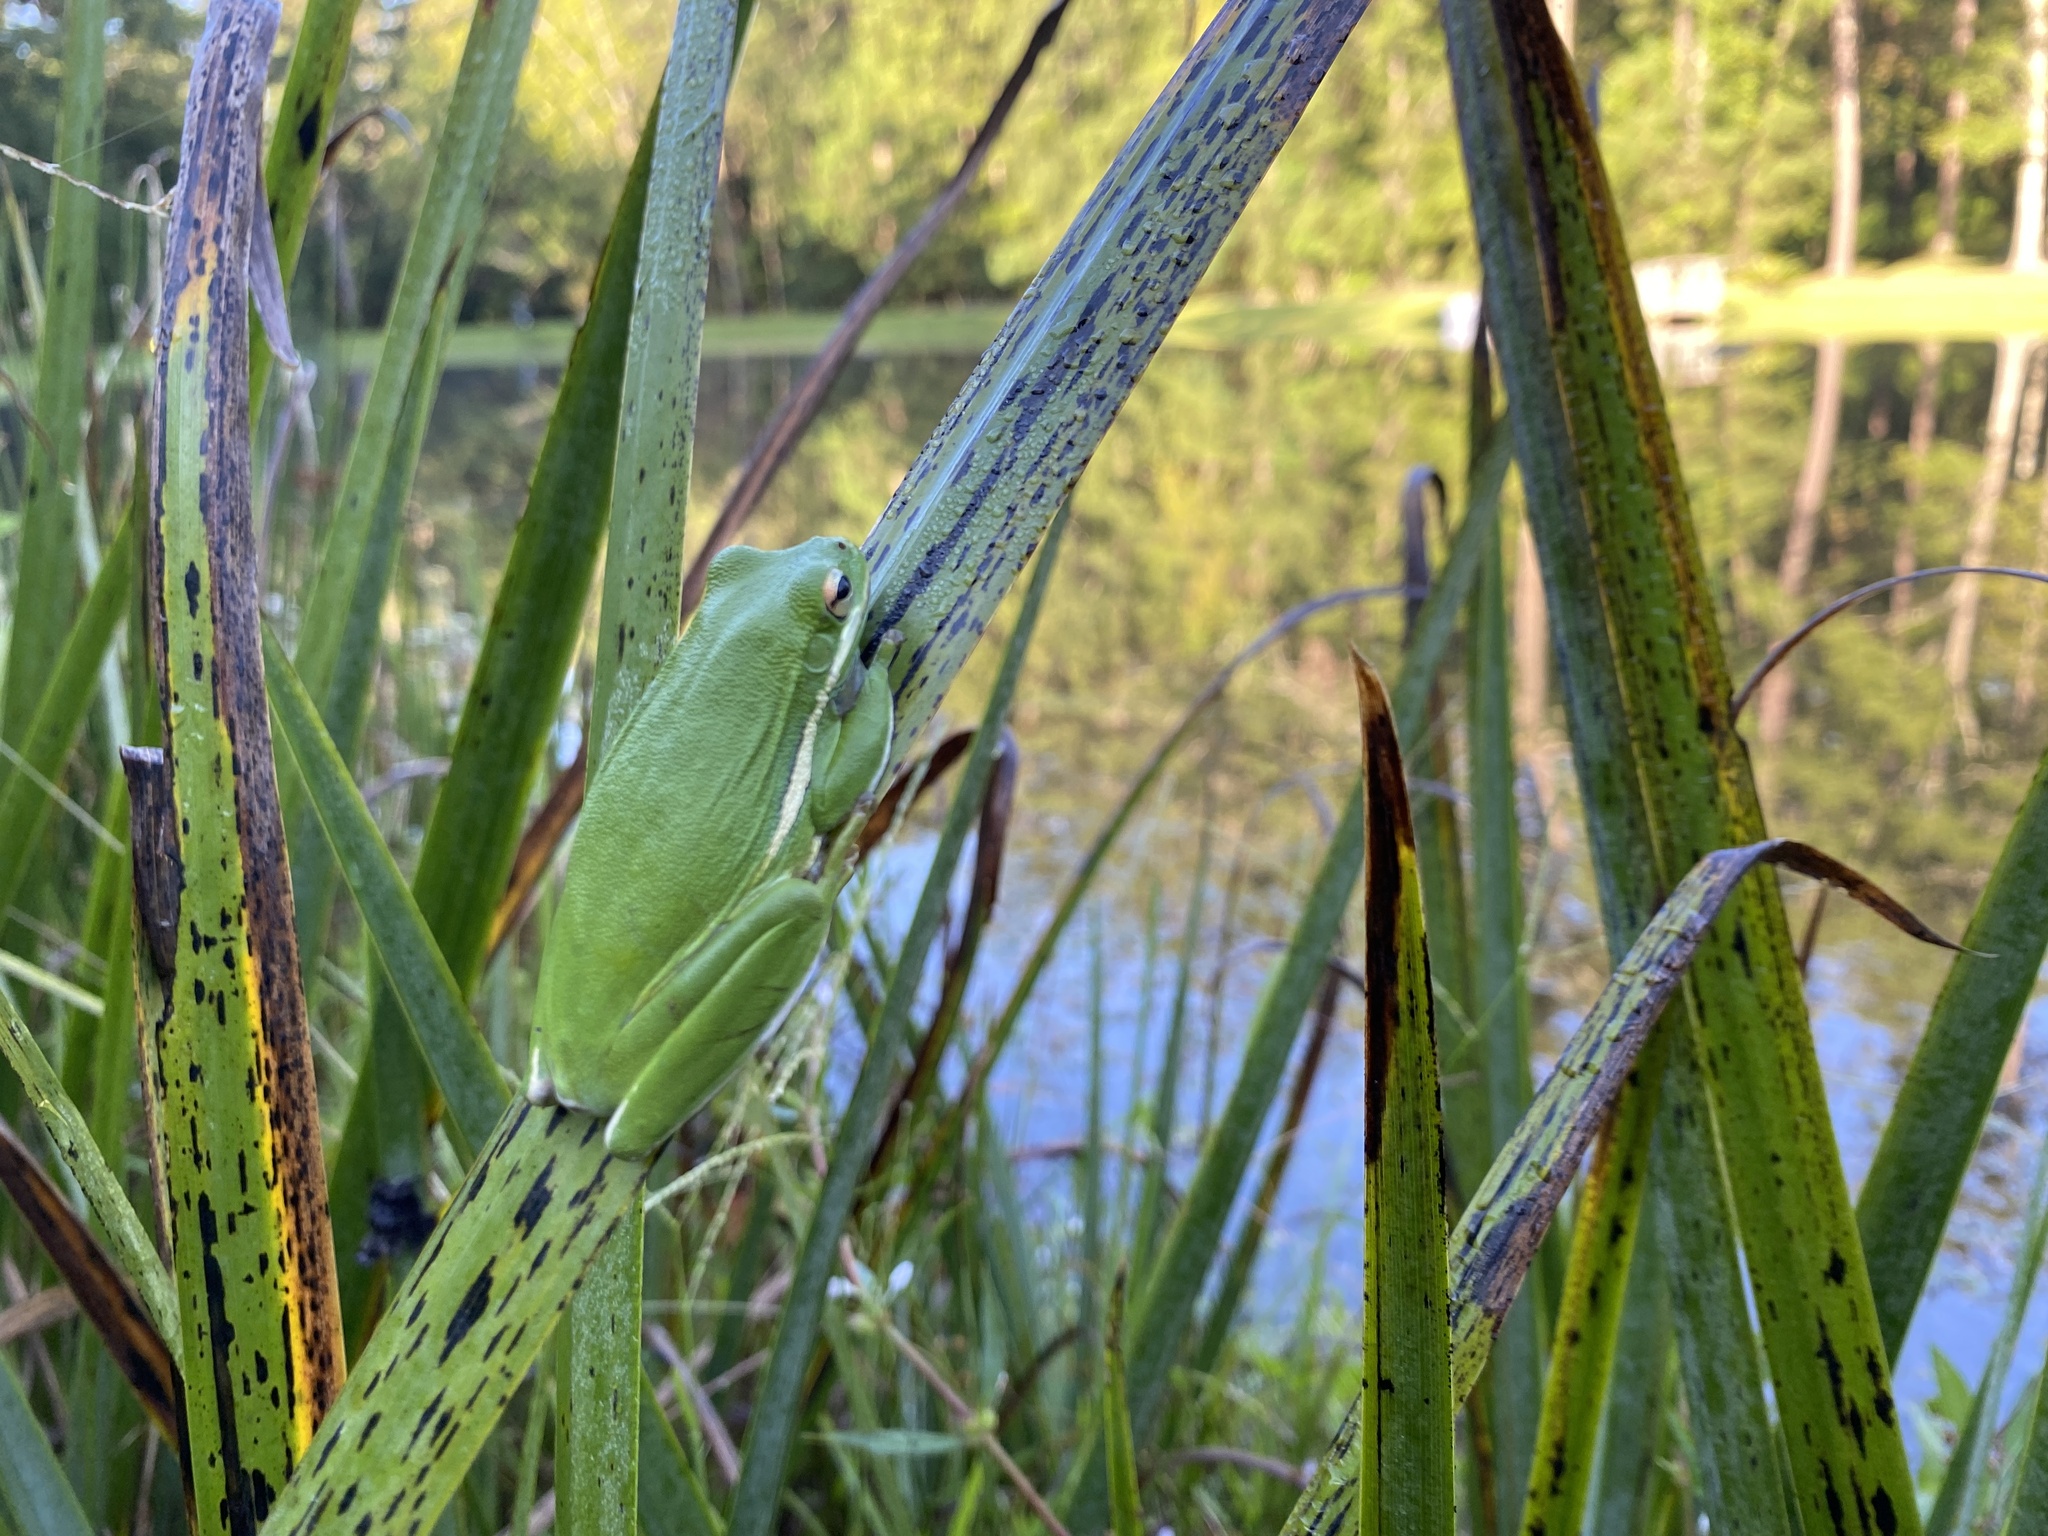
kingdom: Animalia
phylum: Chordata
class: Amphibia
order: Anura
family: Hylidae
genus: Dryophytes
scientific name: Dryophytes cinereus
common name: Green treefrog
